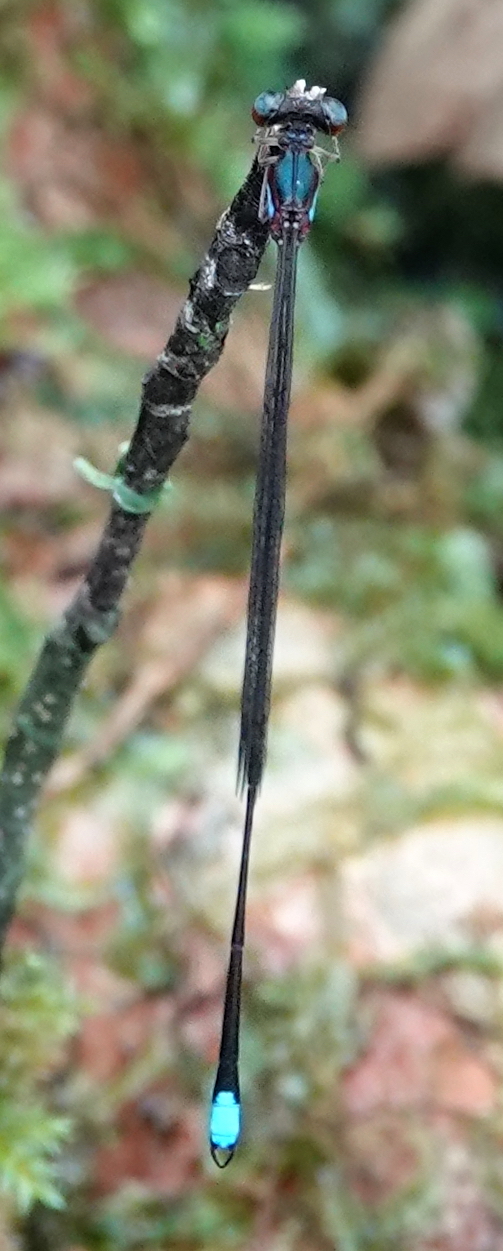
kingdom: Animalia
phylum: Arthropoda
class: Insecta
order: Odonata
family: Platystictidae
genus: Ceylonosticta
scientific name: Ceylonosticta mojca
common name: Mojca’s shadowdamsel
